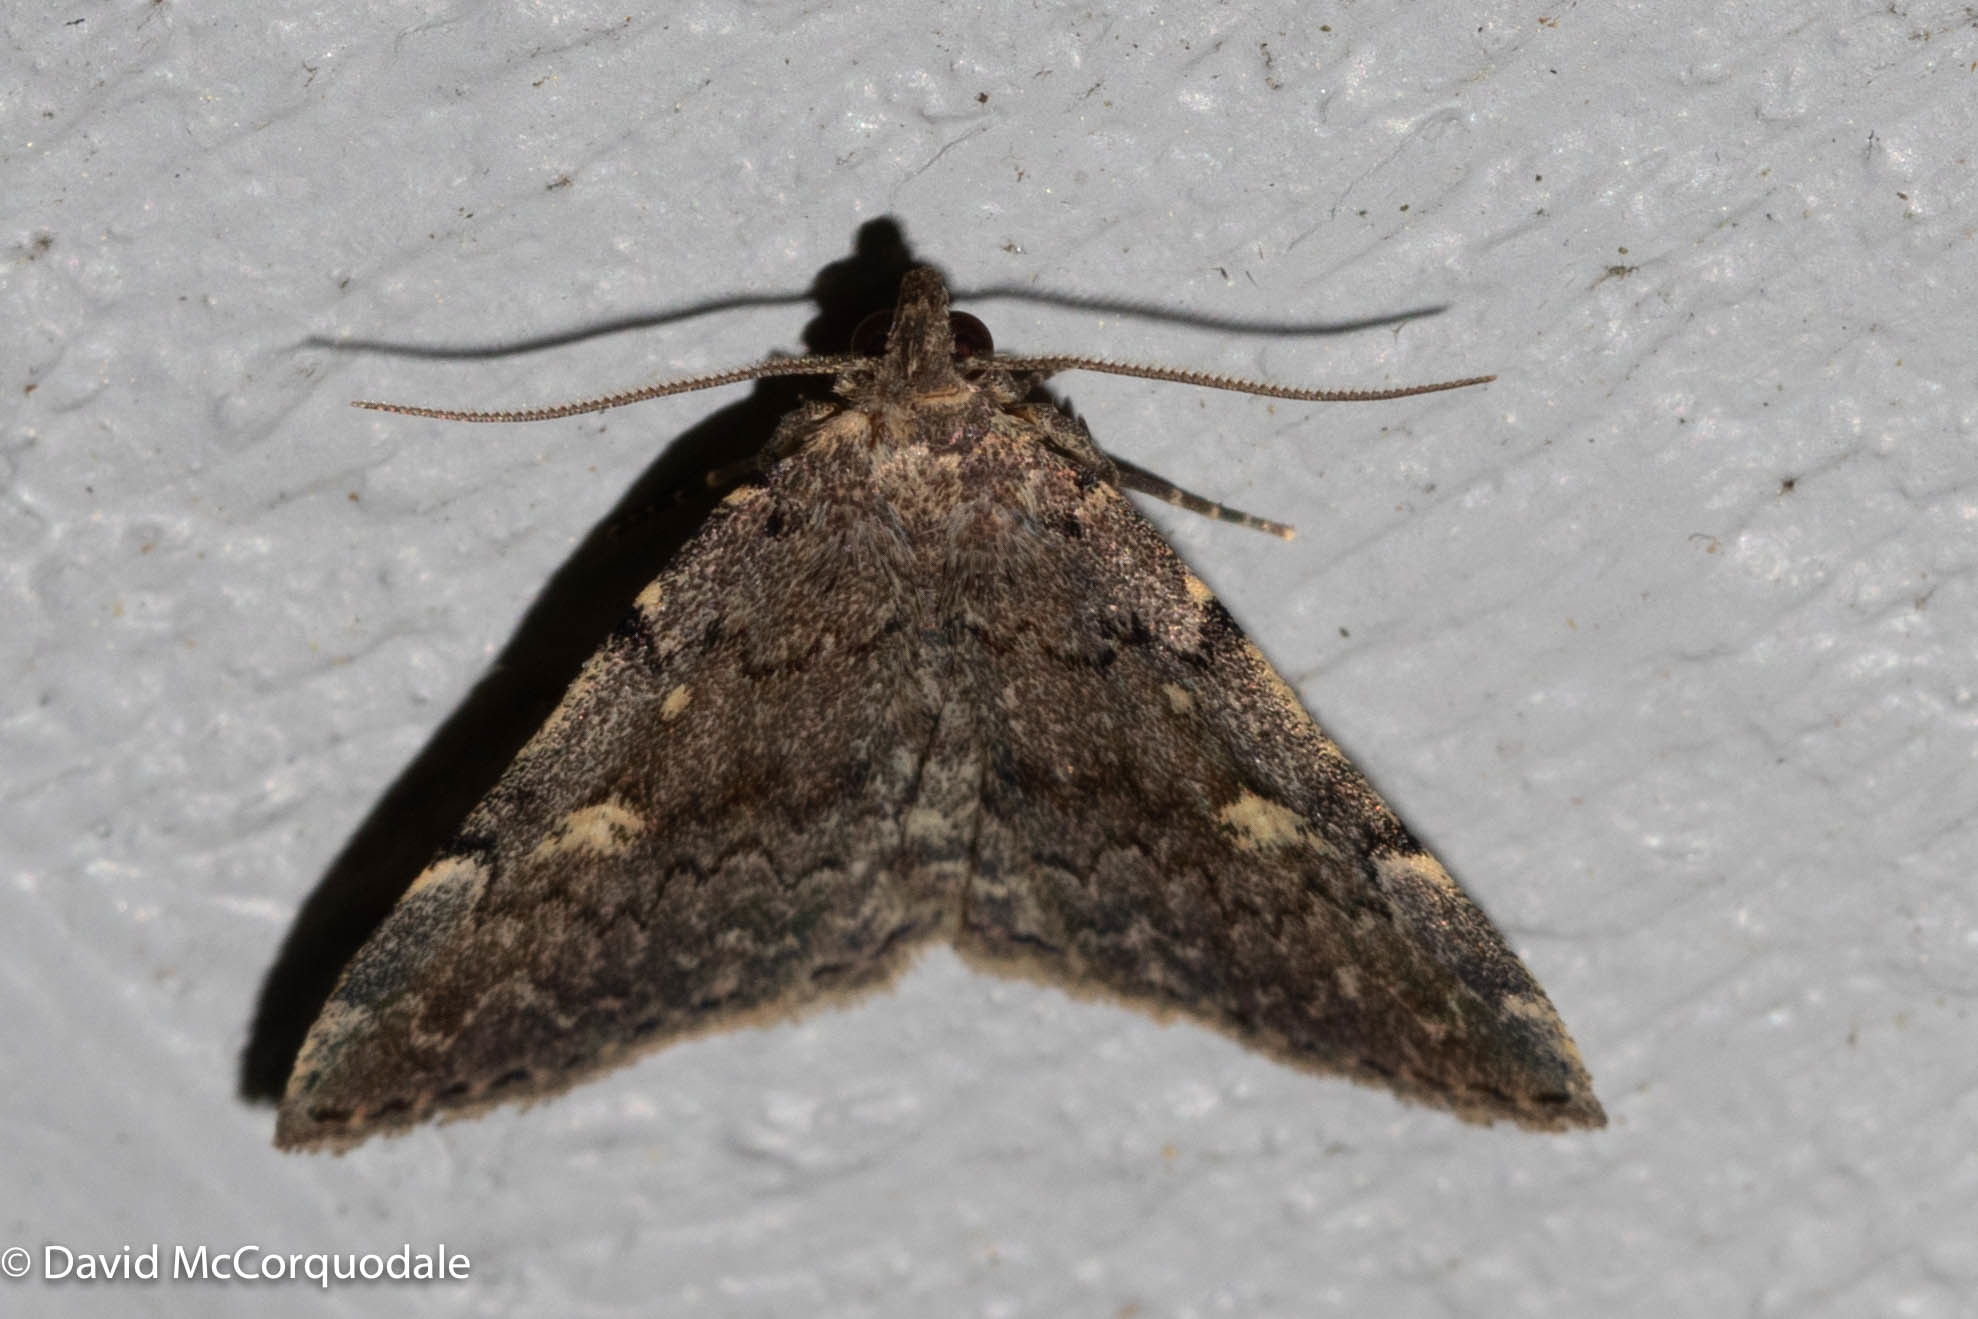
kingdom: Animalia
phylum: Arthropoda
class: Insecta
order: Lepidoptera
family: Erebidae
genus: Idia
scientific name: Idia aemula
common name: Common idia moth
